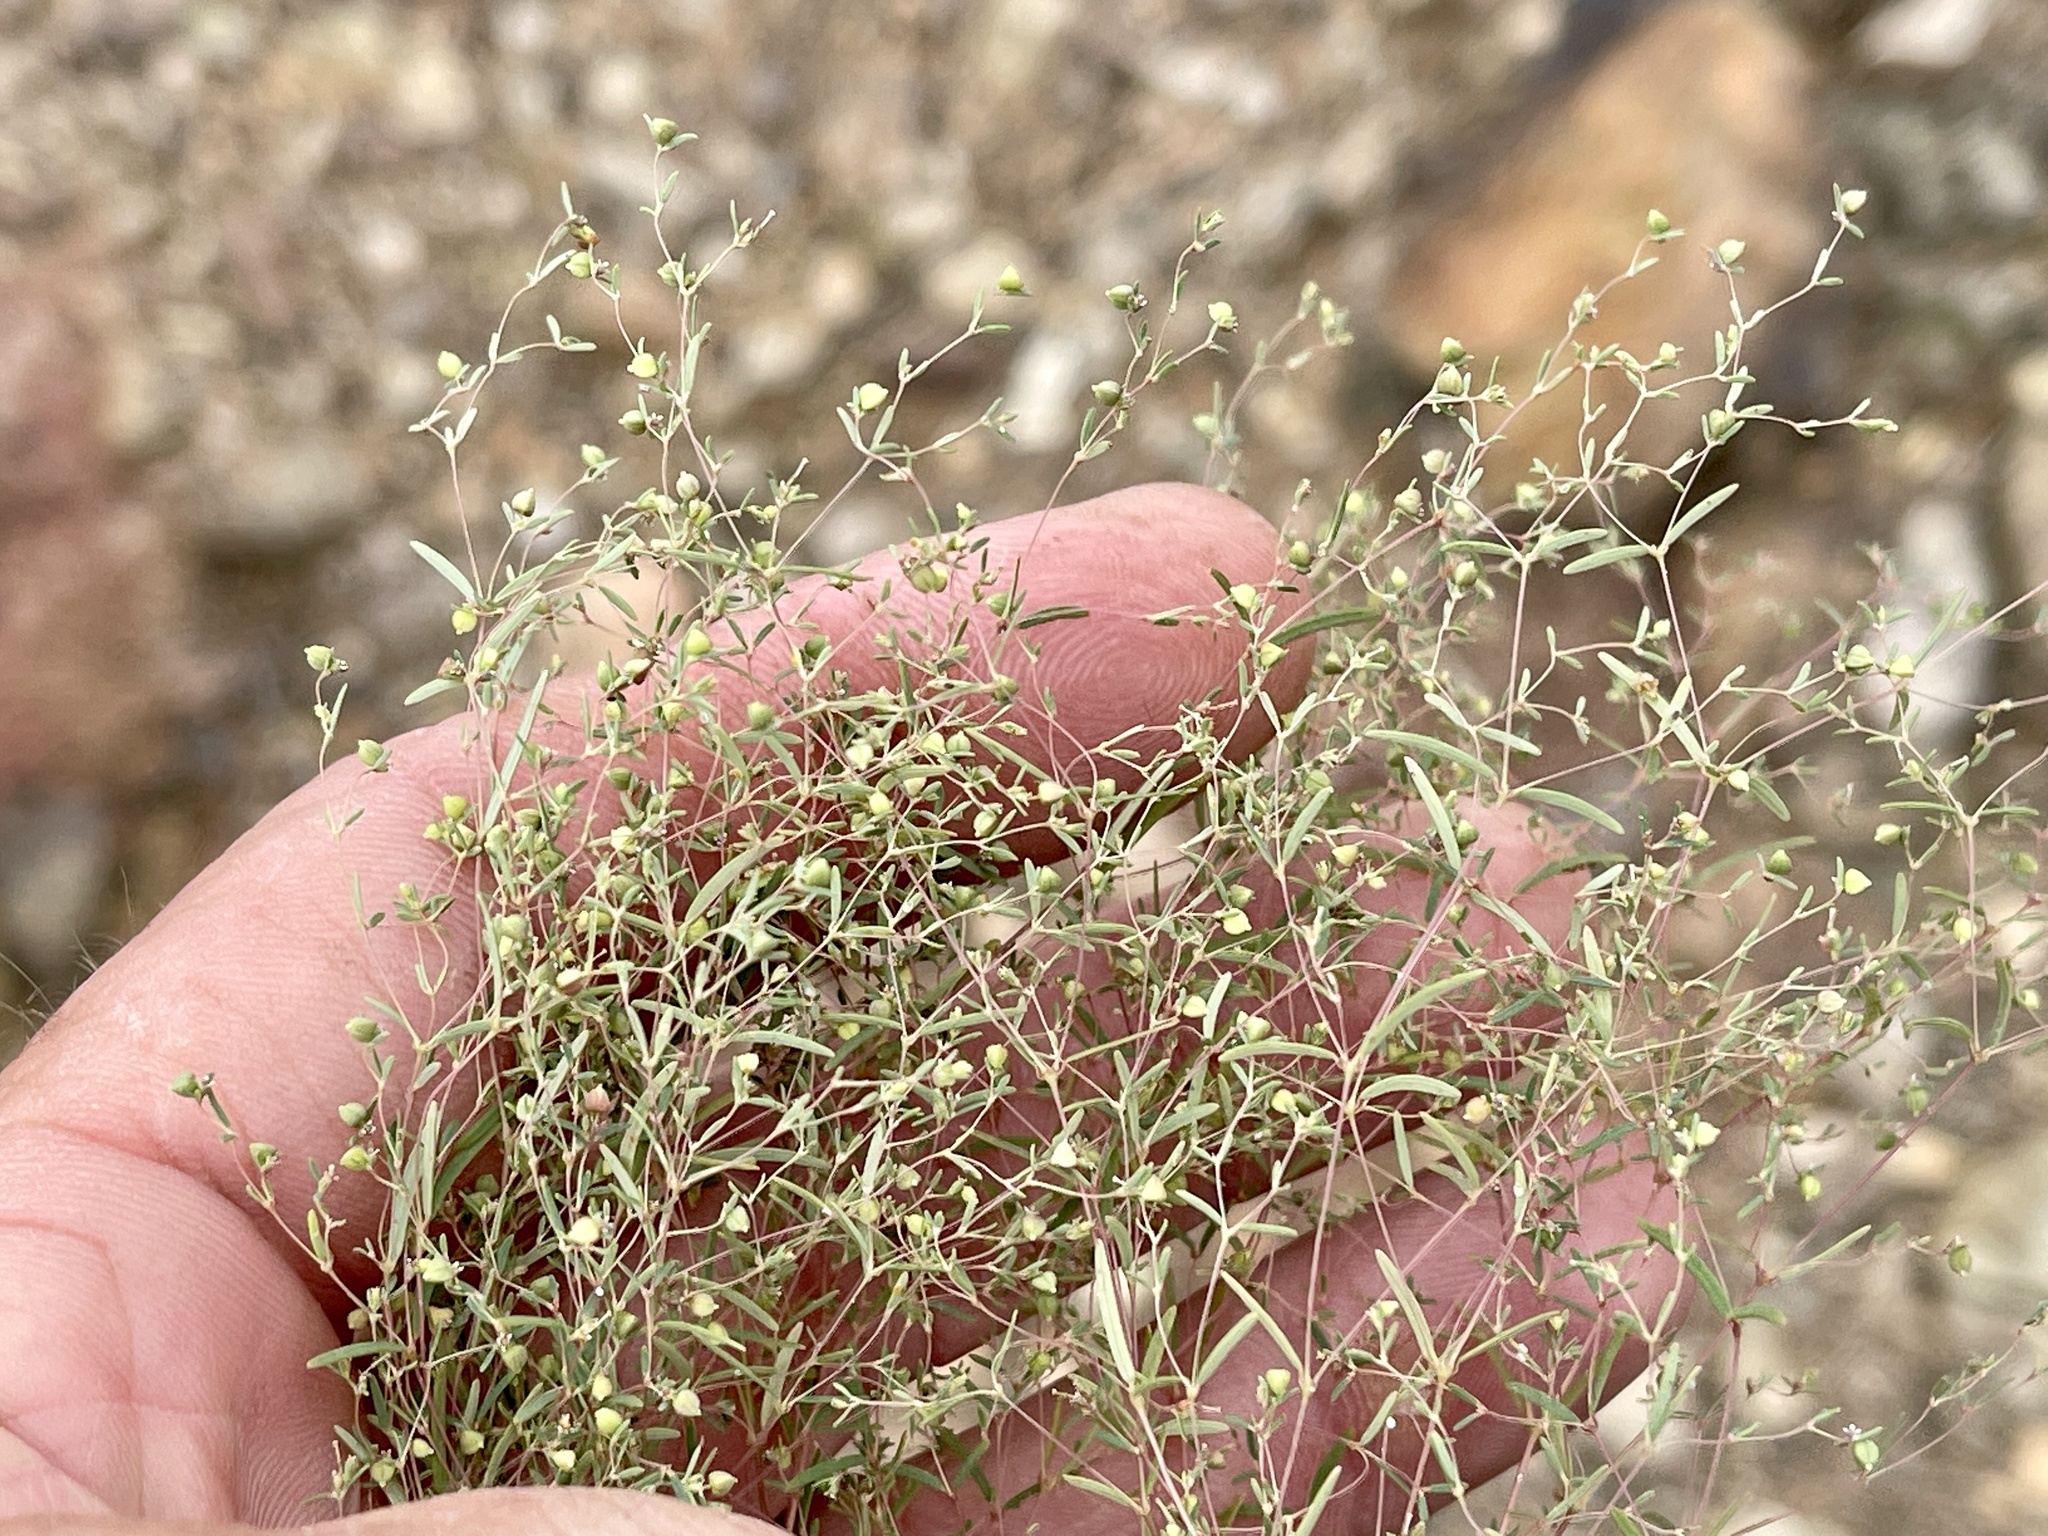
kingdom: Plantae
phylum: Tracheophyta
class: Magnoliopsida
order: Malpighiales
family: Euphorbiaceae
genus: Euphorbia
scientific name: Euphorbia gracillima
